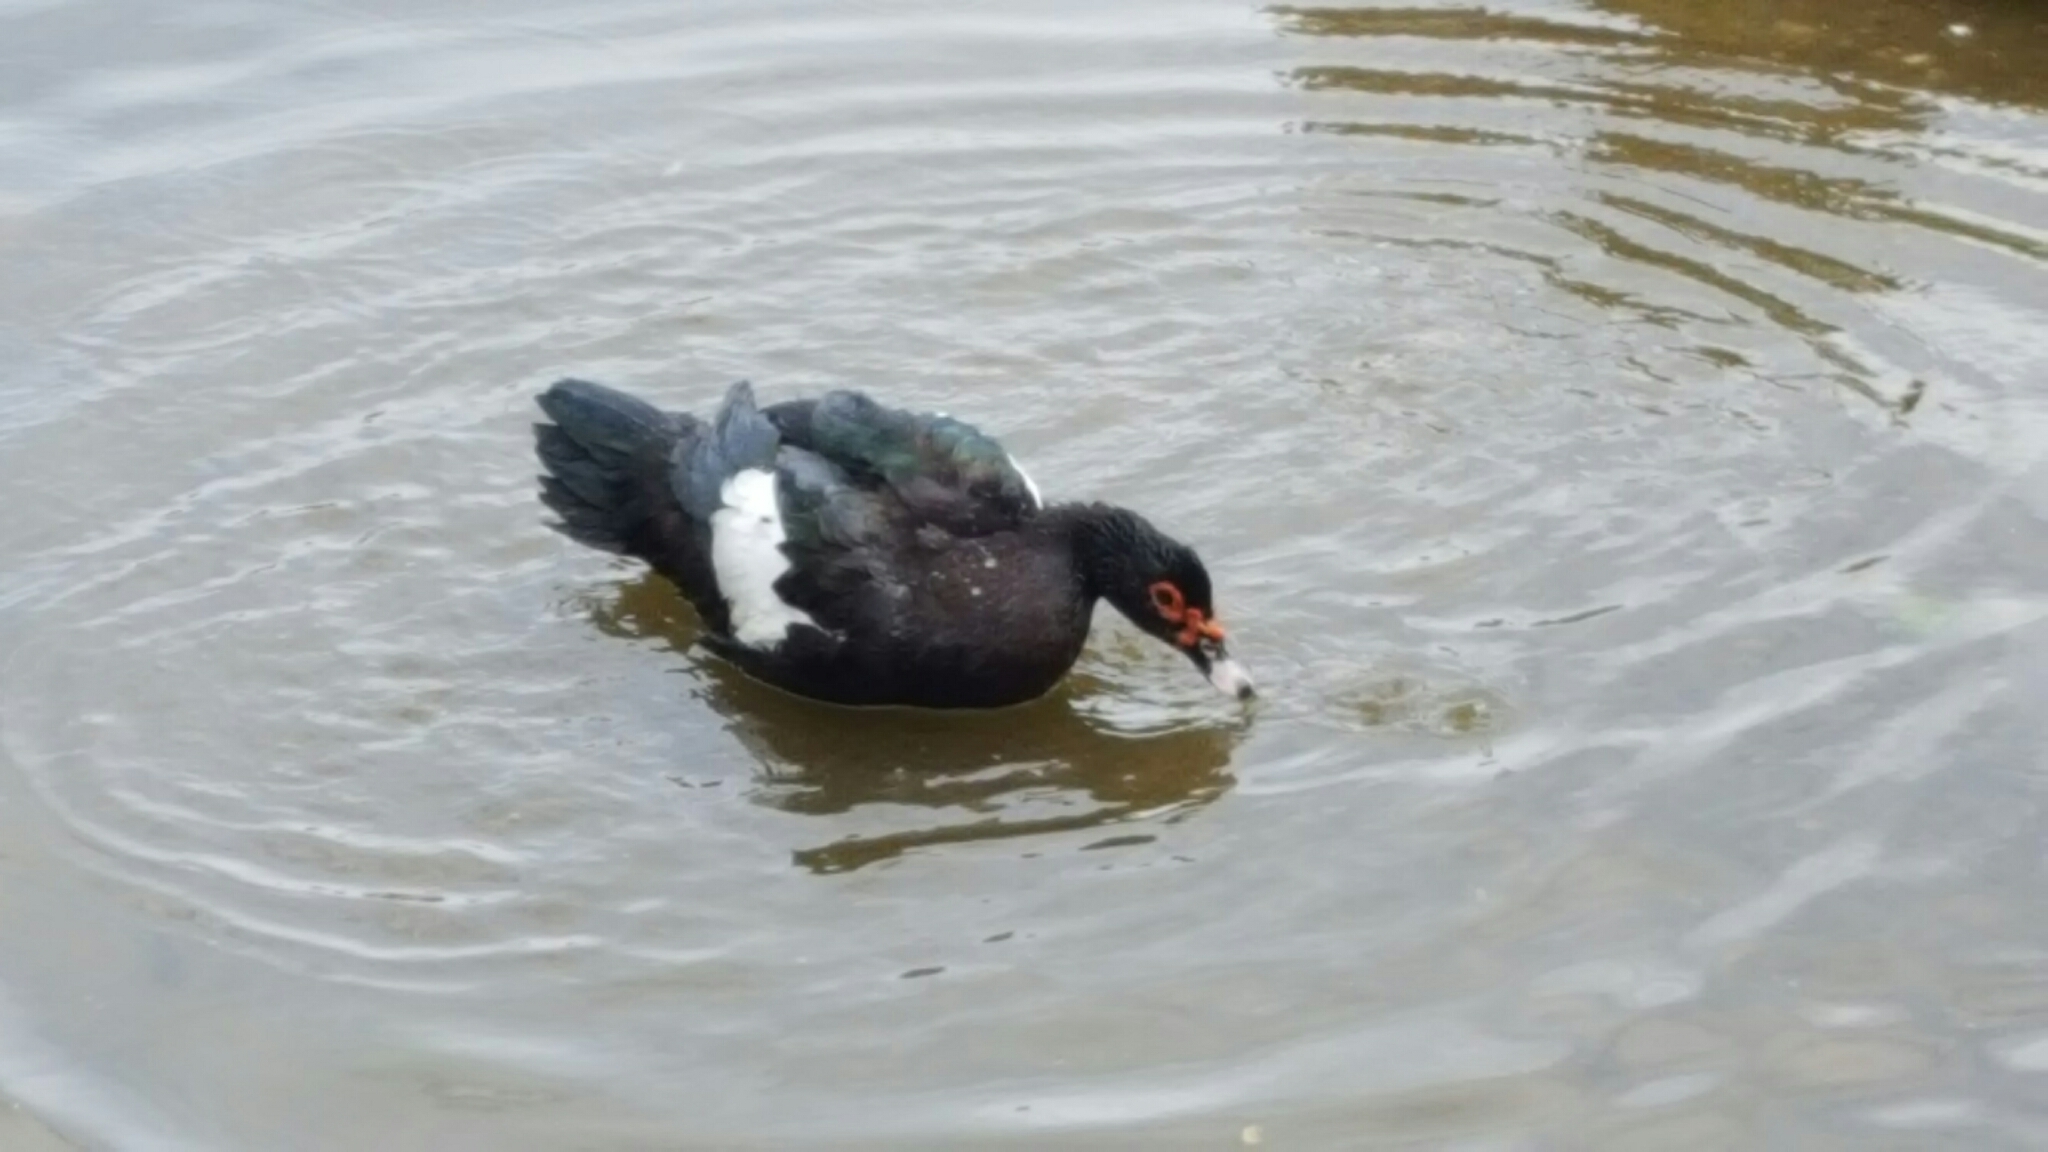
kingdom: Animalia
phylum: Chordata
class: Aves
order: Anseriformes
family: Anatidae
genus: Cairina
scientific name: Cairina moschata
